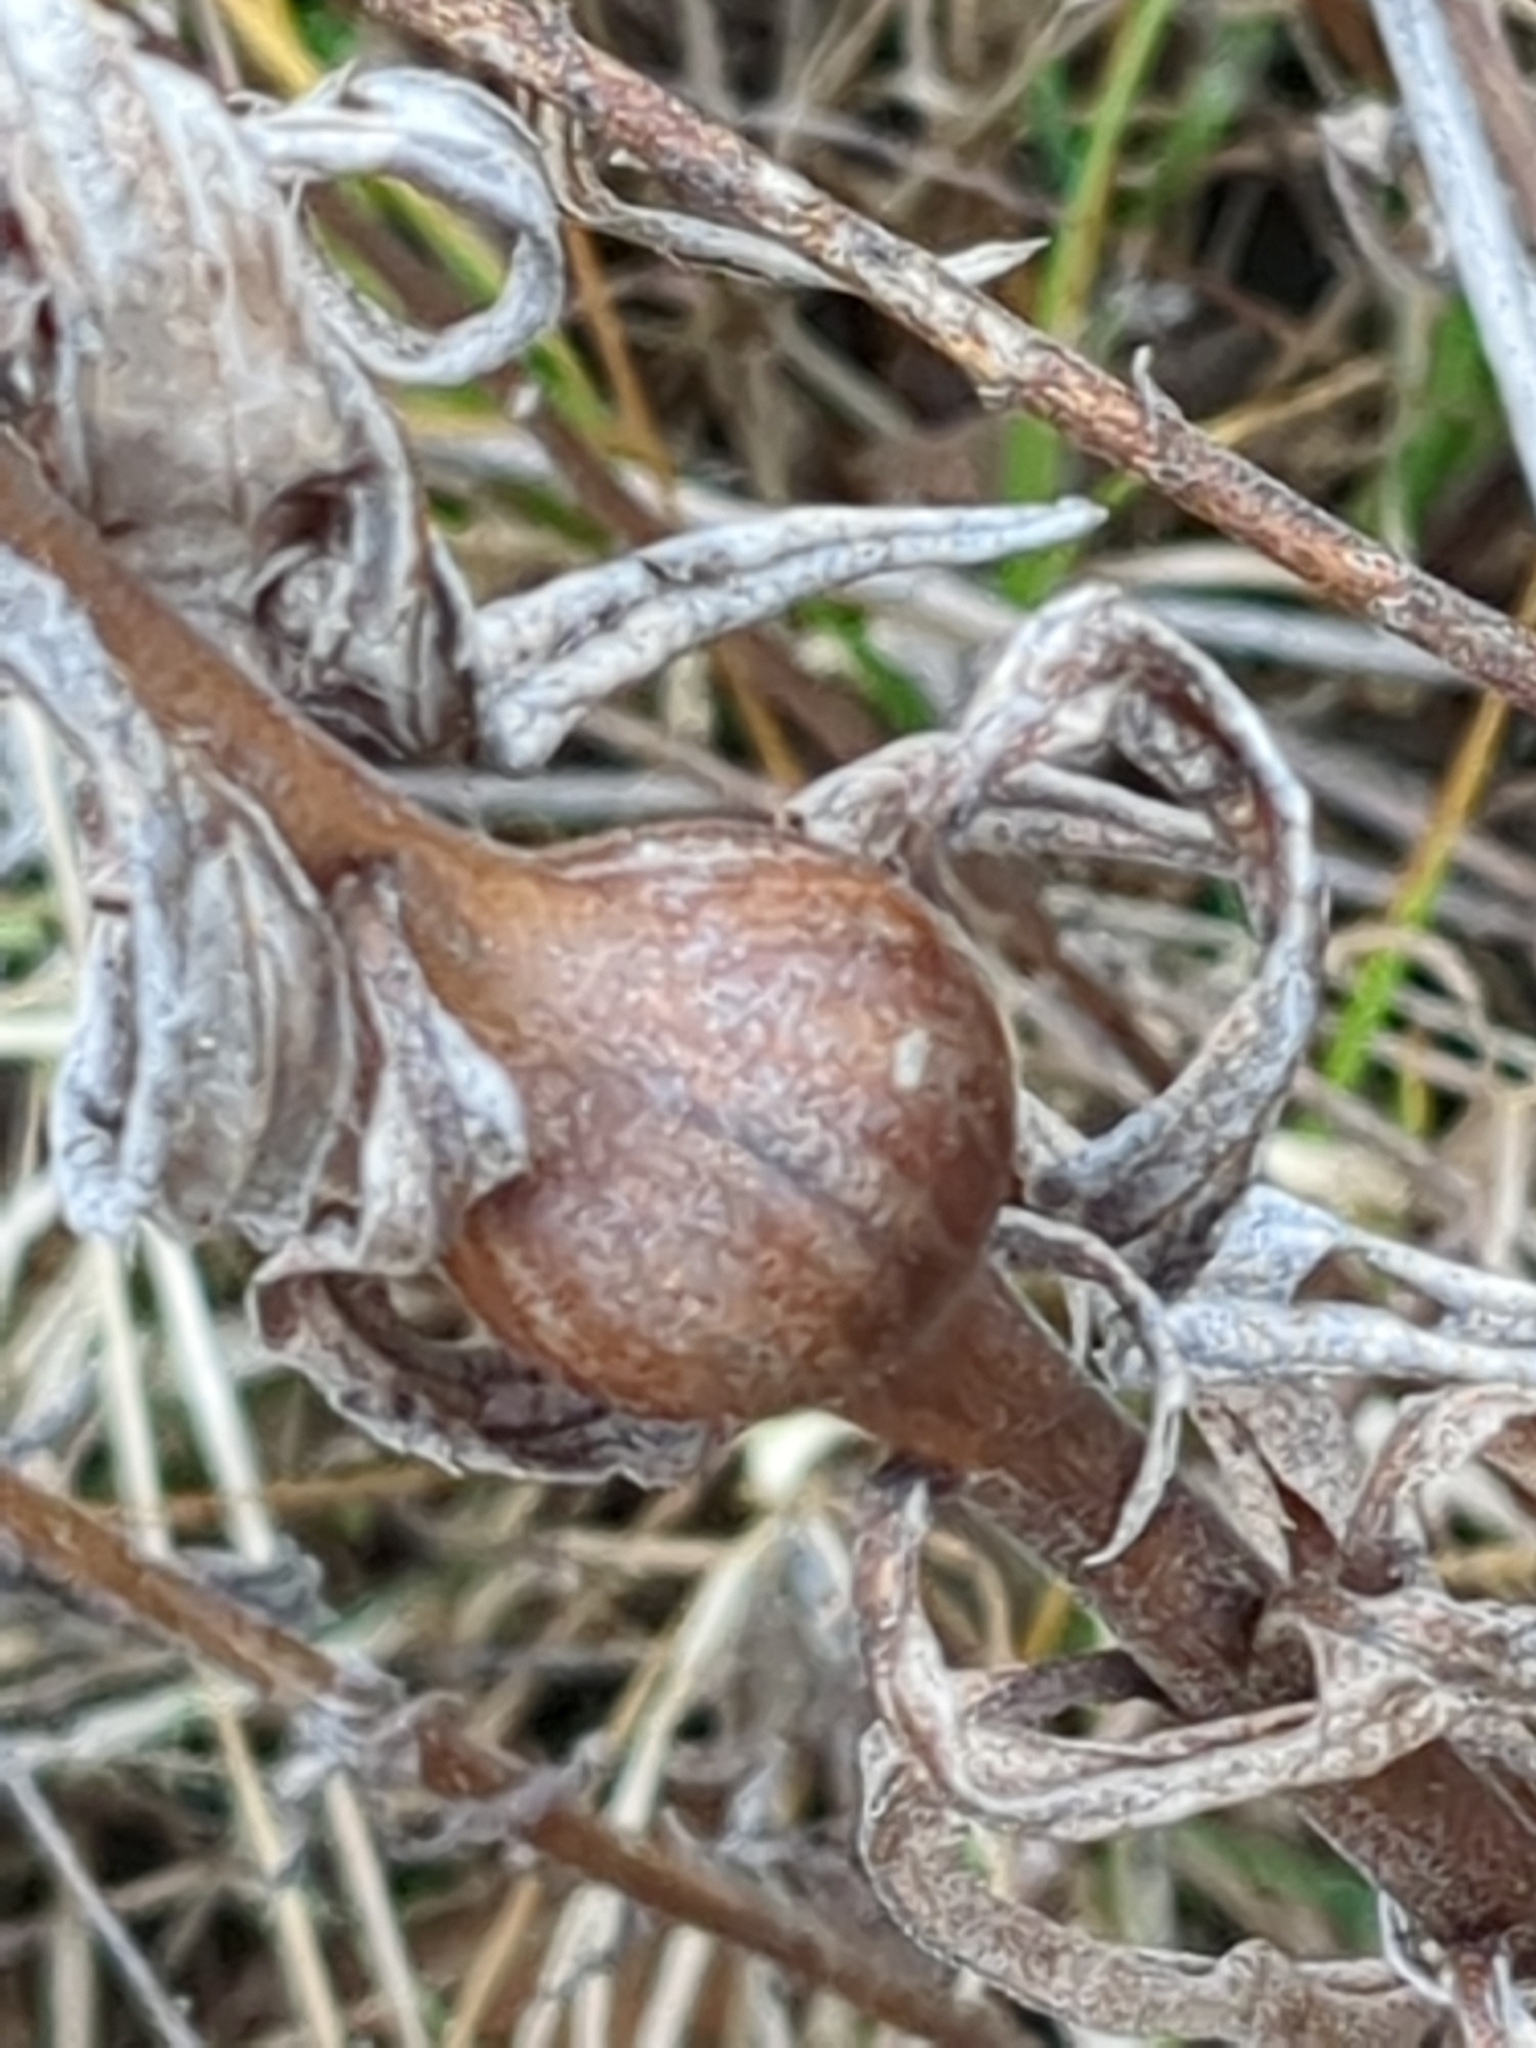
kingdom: Animalia
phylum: Arthropoda
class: Insecta
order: Diptera
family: Tephritidae
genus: Eurosta
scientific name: Eurosta solidaginis
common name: Goldenrod gall fly
